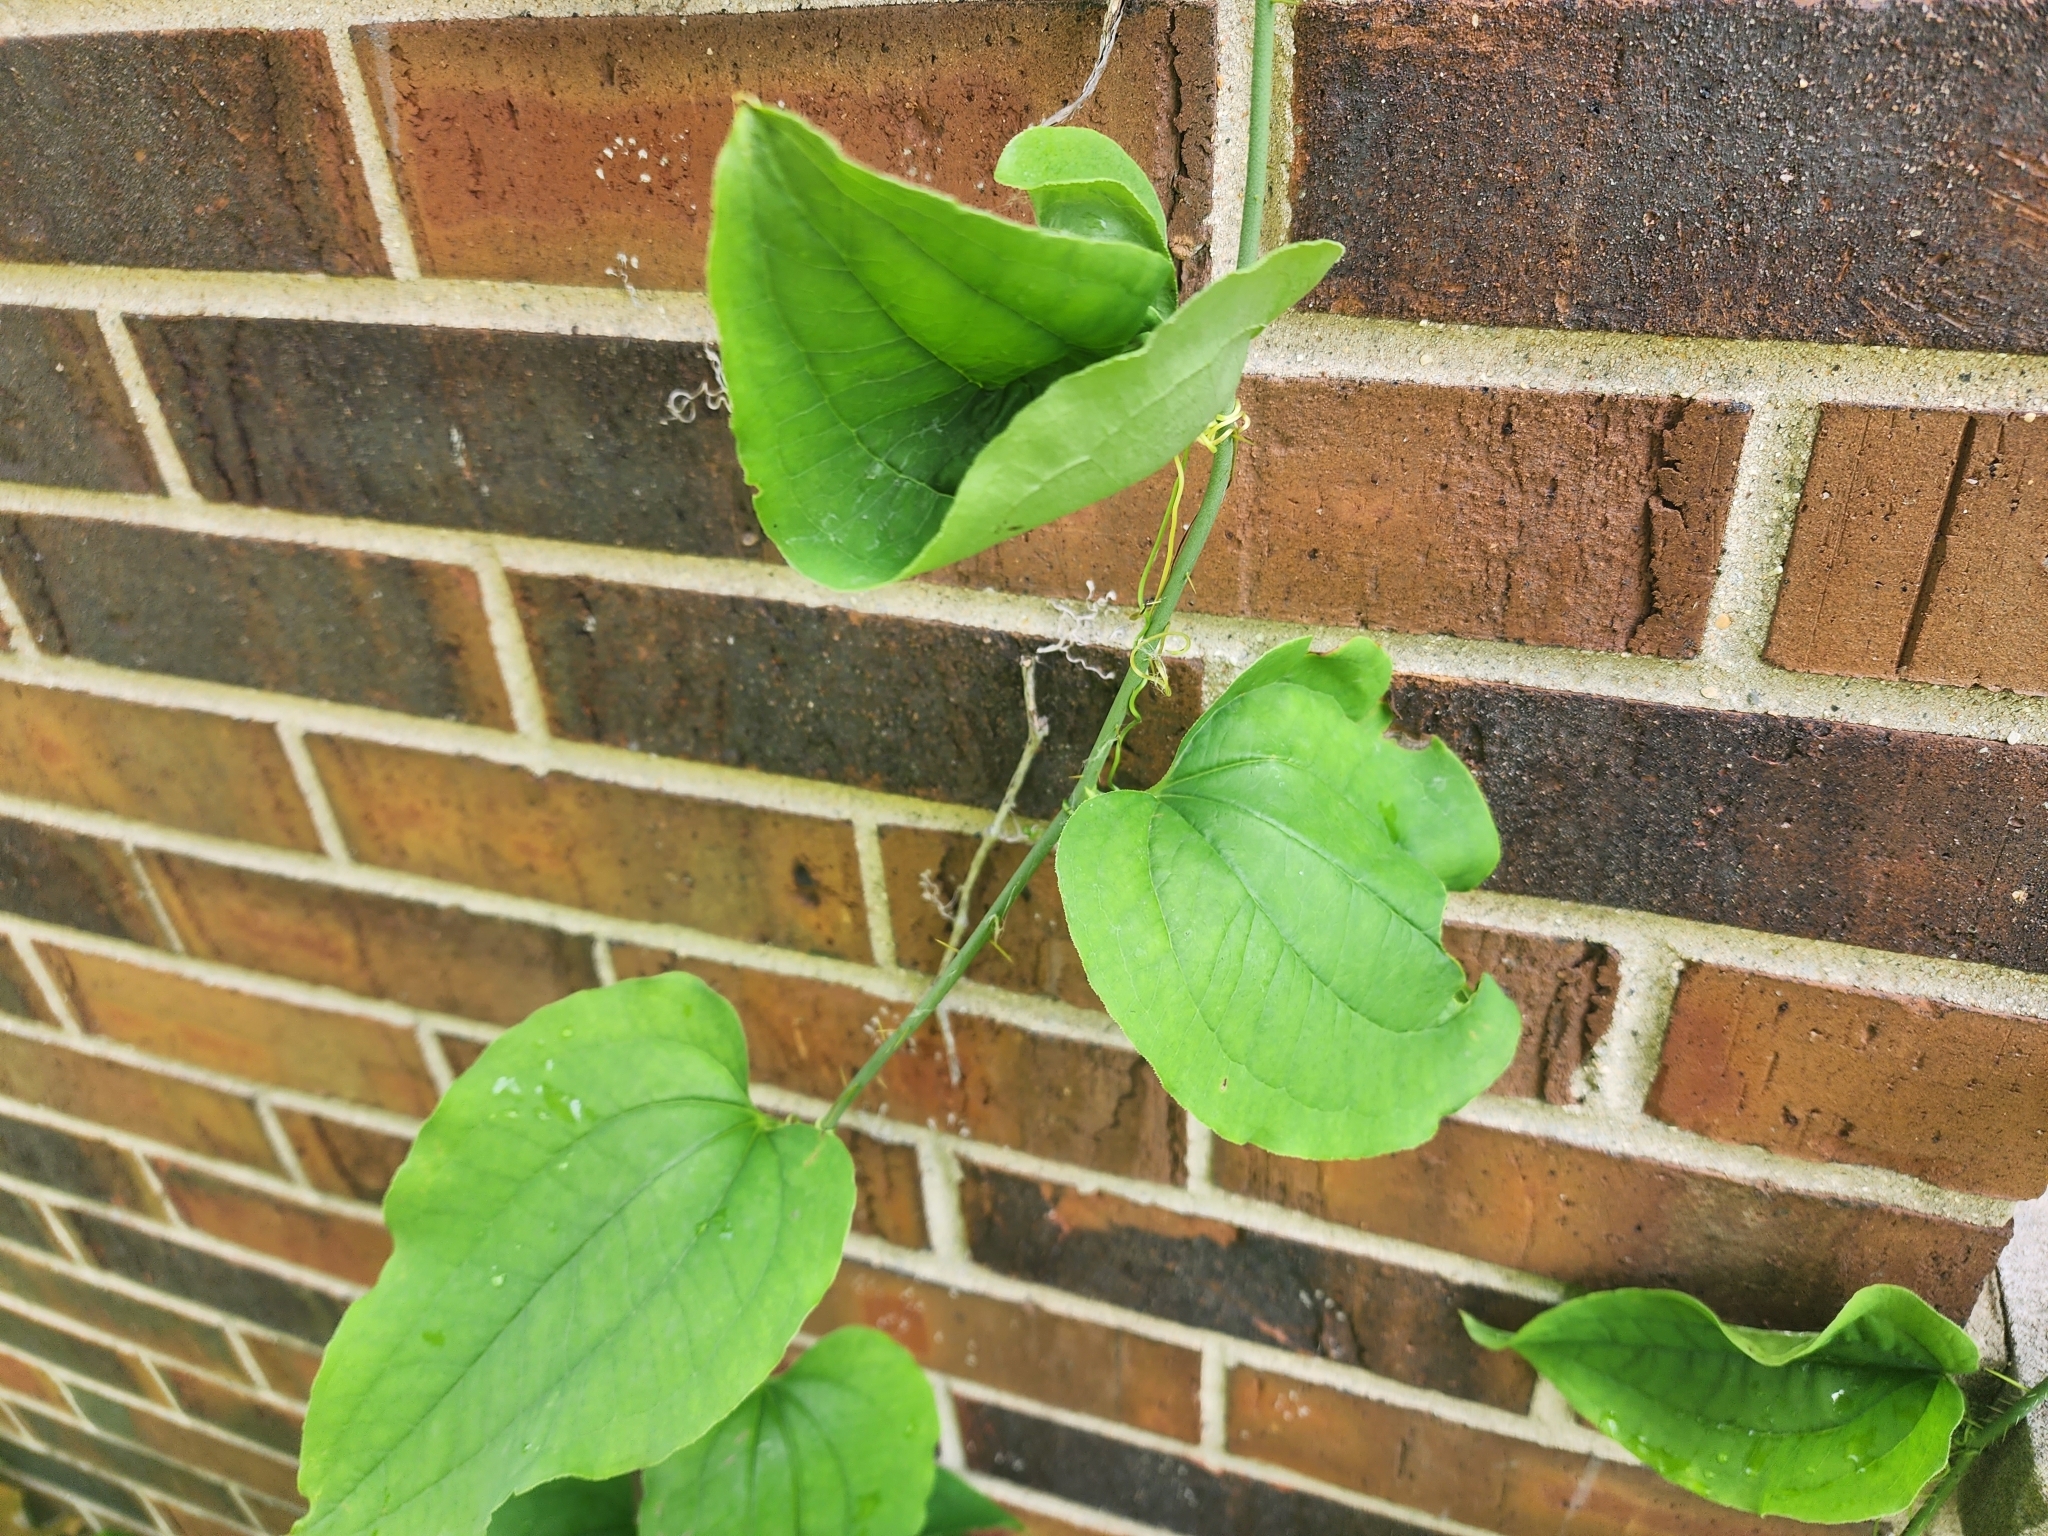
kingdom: Plantae
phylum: Tracheophyta
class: Liliopsida
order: Liliales
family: Smilacaceae
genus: Smilax
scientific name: Smilax tamnoides
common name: Hellfetter
